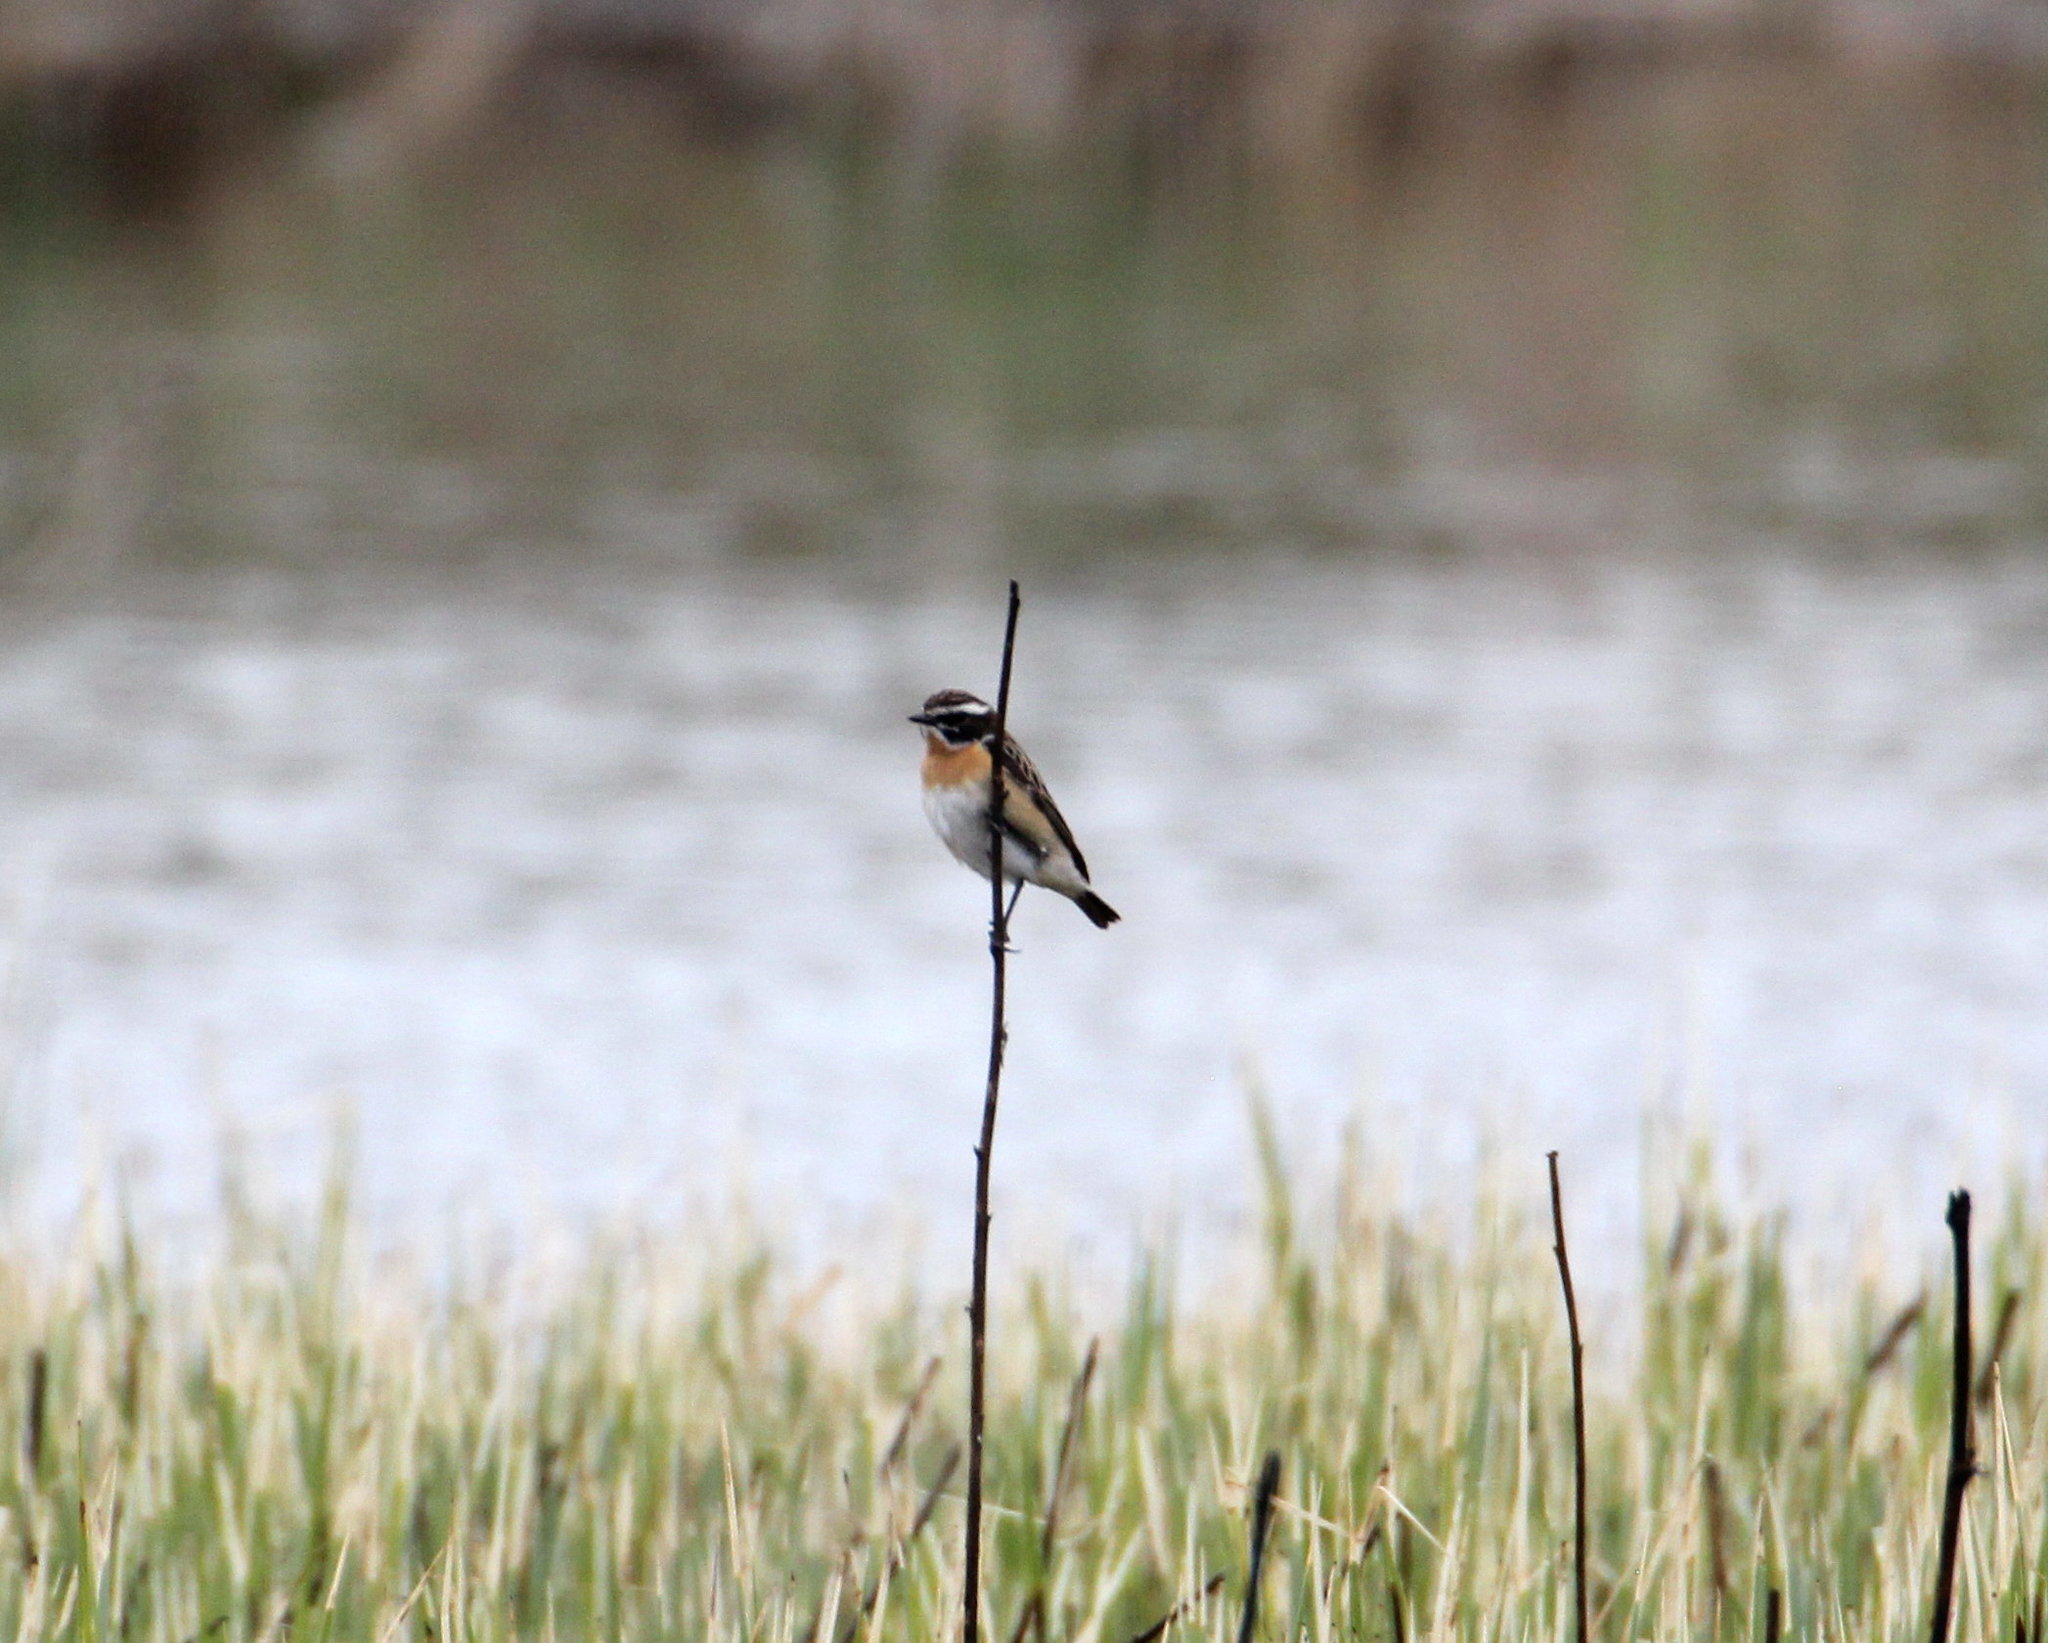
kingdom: Animalia
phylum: Chordata
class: Aves
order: Passeriformes
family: Muscicapidae
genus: Saxicola
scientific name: Saxicola rubetra
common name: Whinchat
